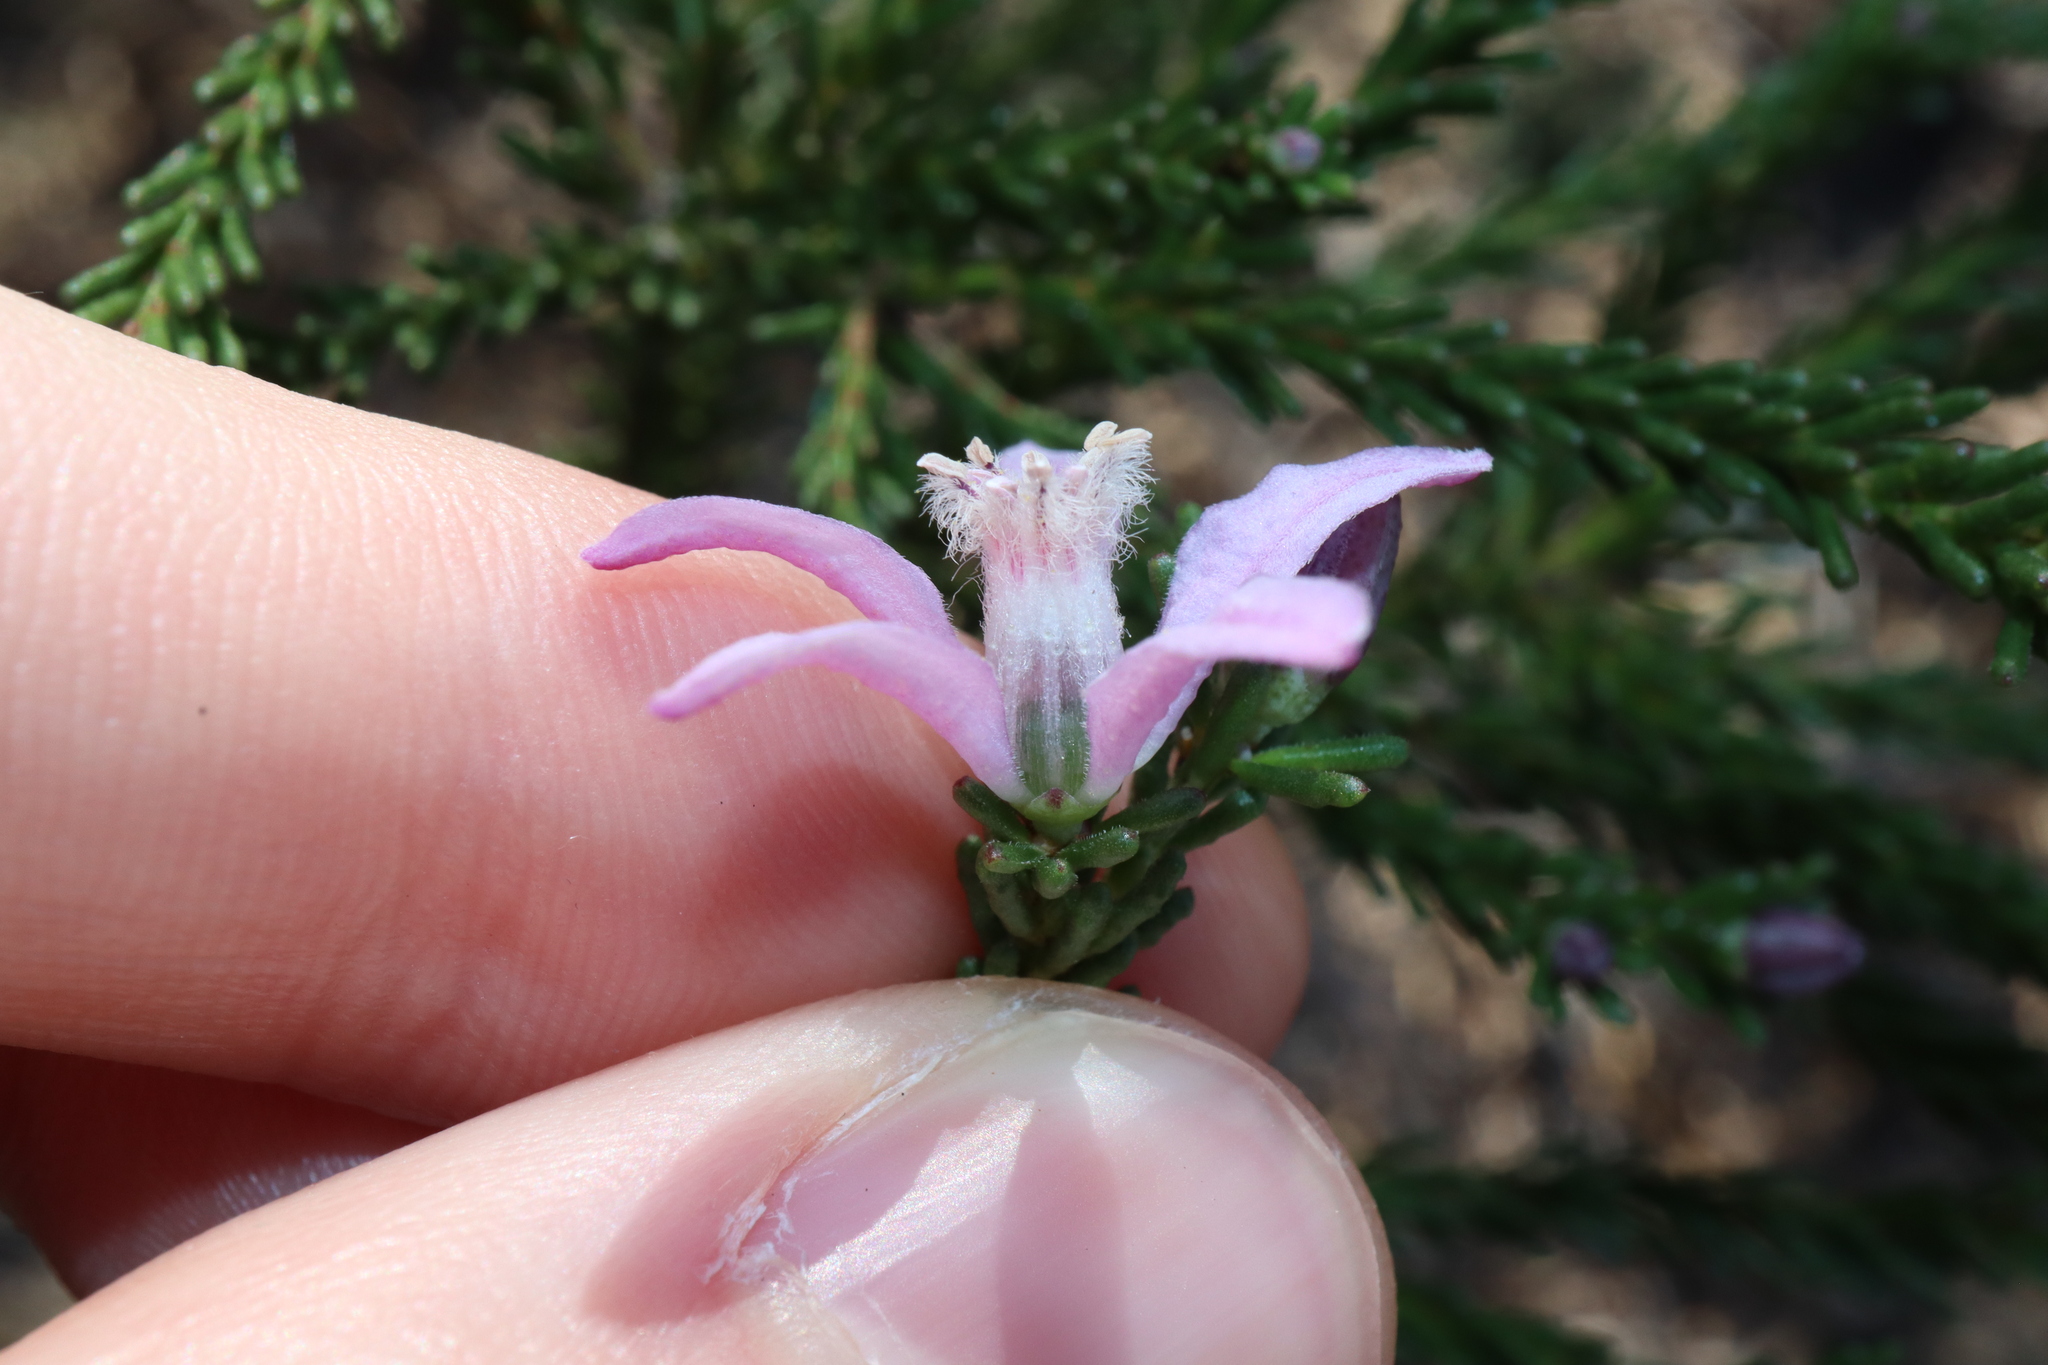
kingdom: Plantae
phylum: Tracheophyta
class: Magnoliopsida
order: Sapindales
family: Rutaceae
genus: Philotheca
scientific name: Philotheca salsolifolia
